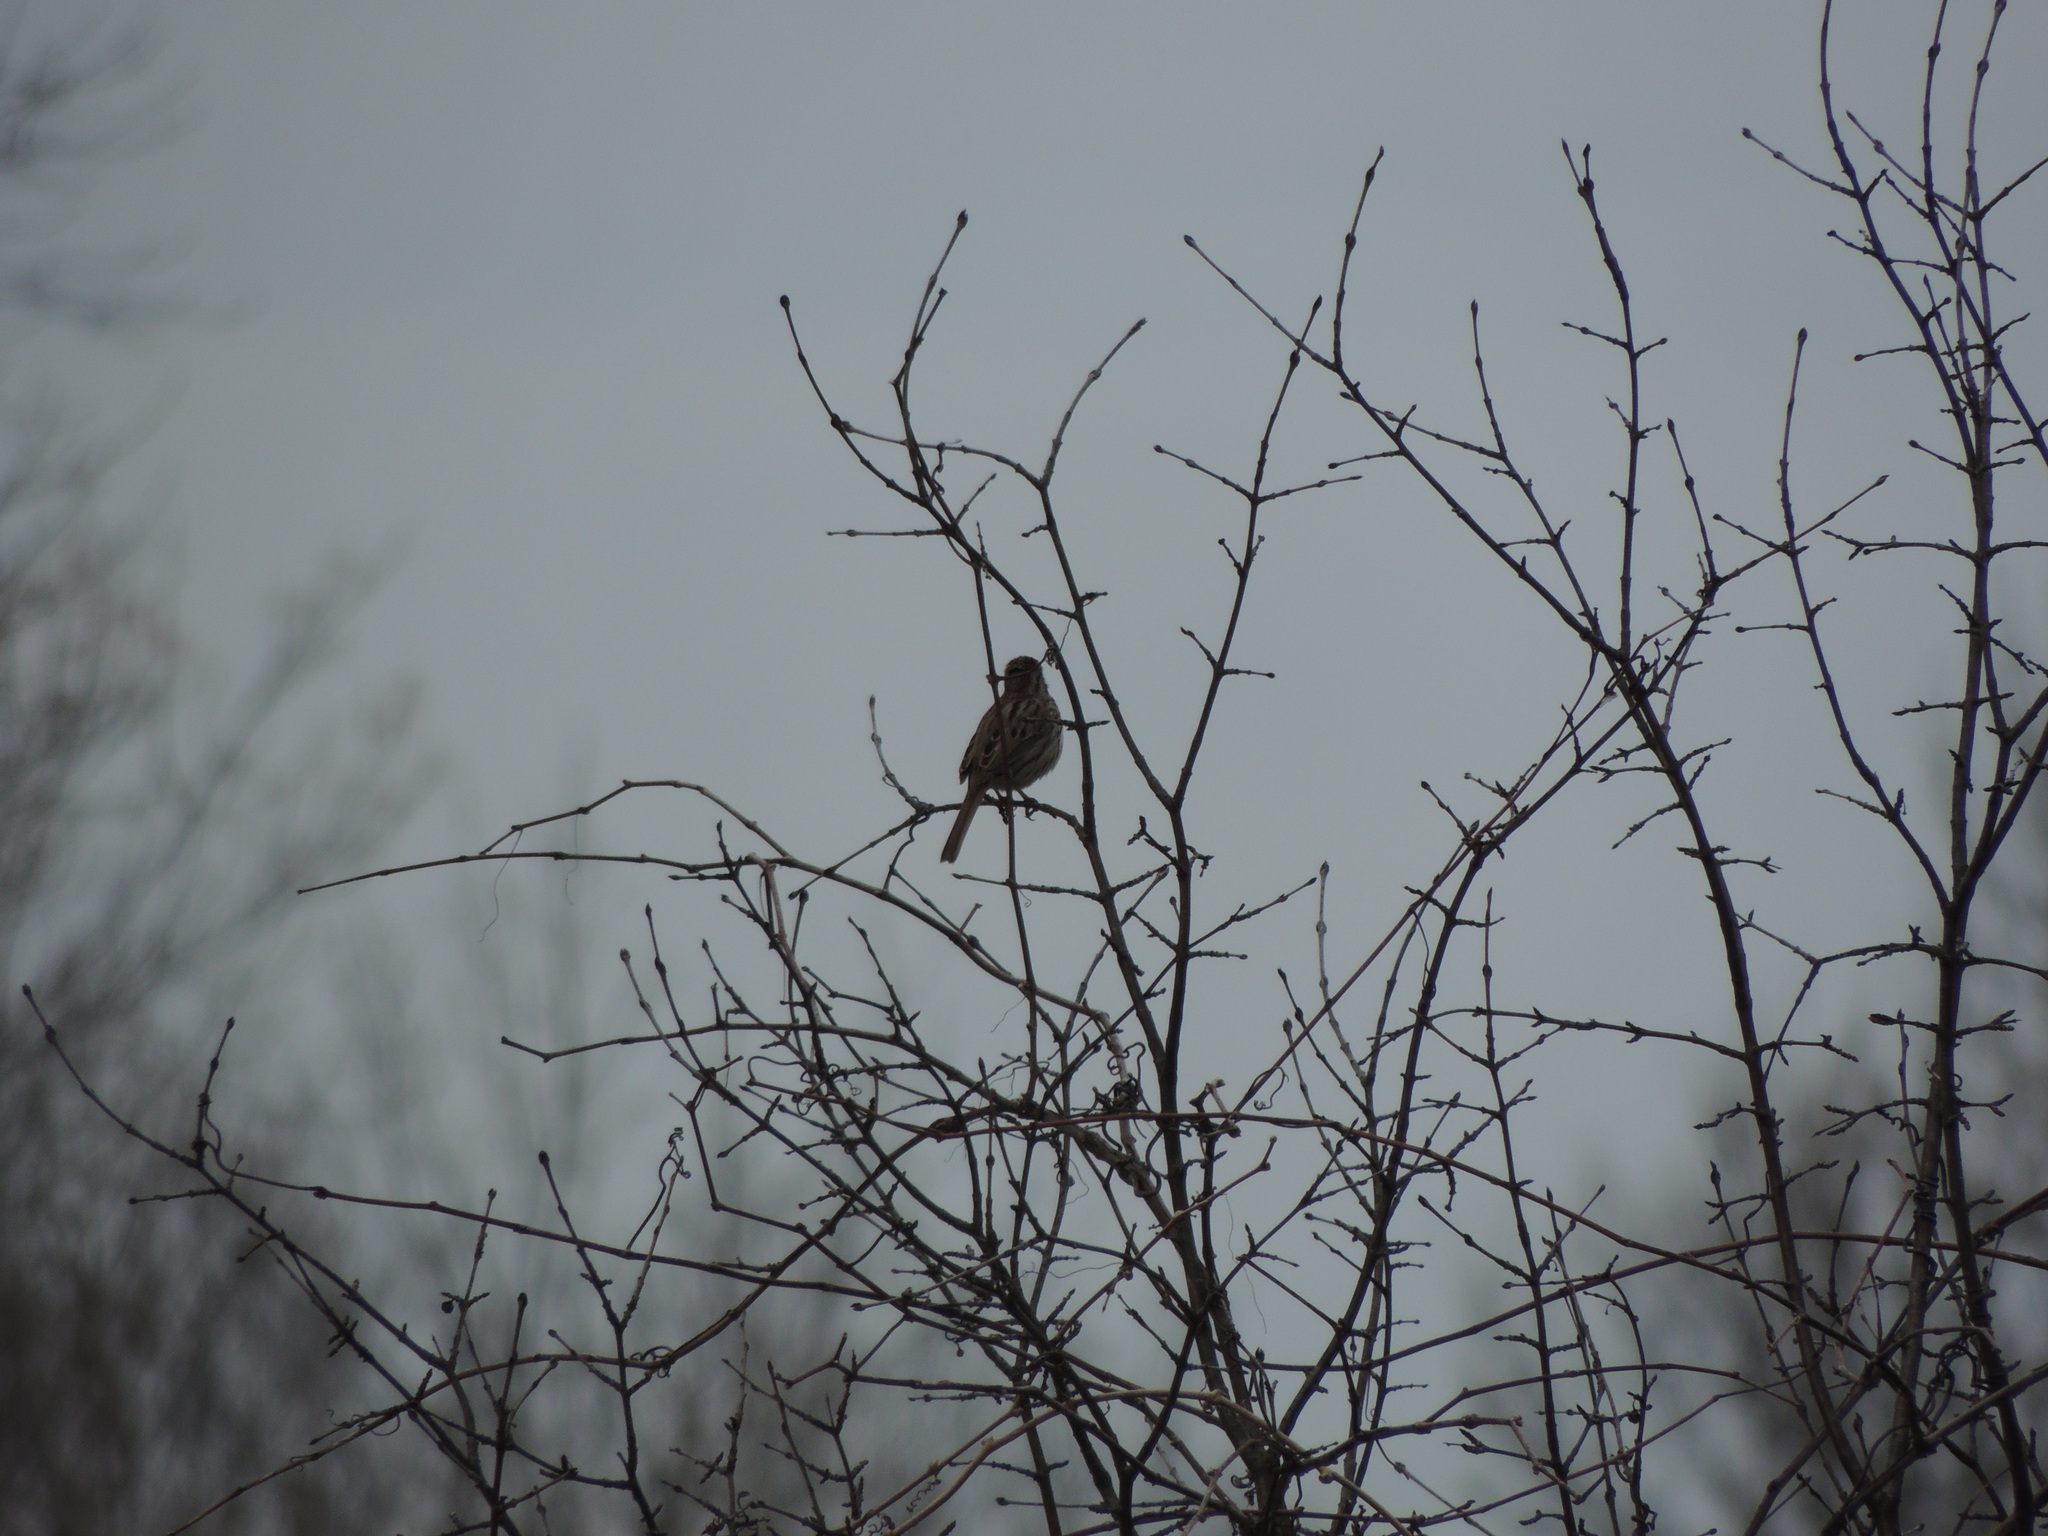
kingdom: Animalia
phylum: Chordata
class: Aves
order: Passeriformes
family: Passerellidae
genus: Melospiza
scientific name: Melospiza melodia
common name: Song sparrow
